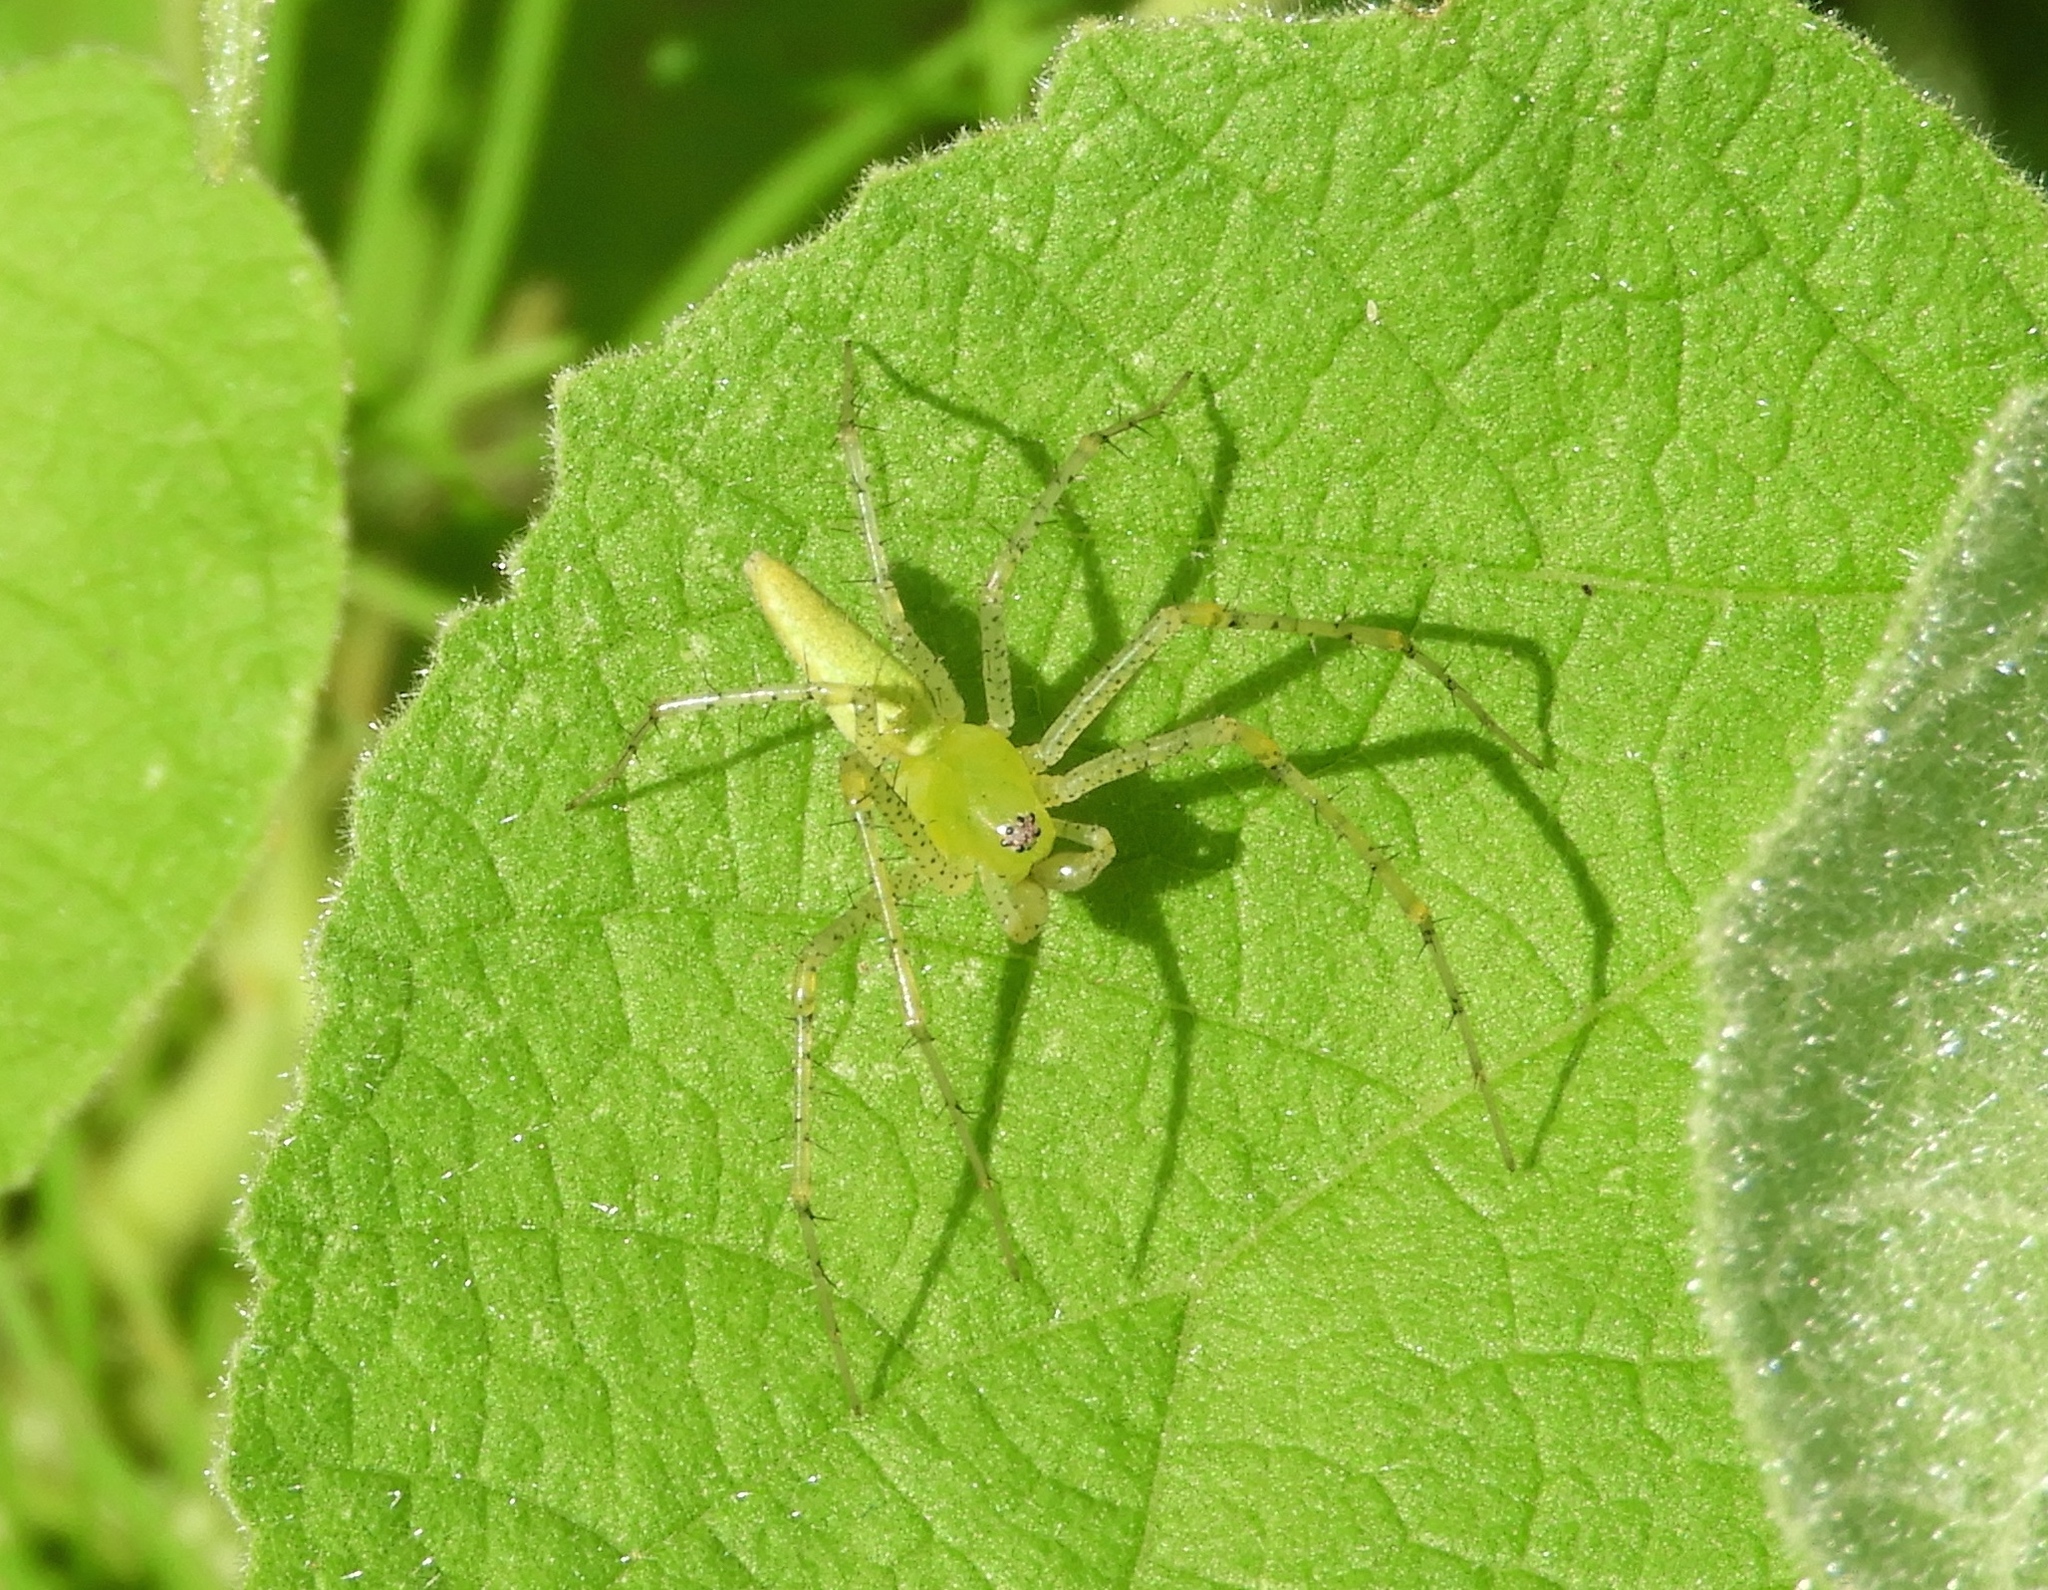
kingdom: Animalia
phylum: Arthropoda
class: Arachnida
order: Araneae
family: Oxyopidae
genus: Peucetia
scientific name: Peucetia
